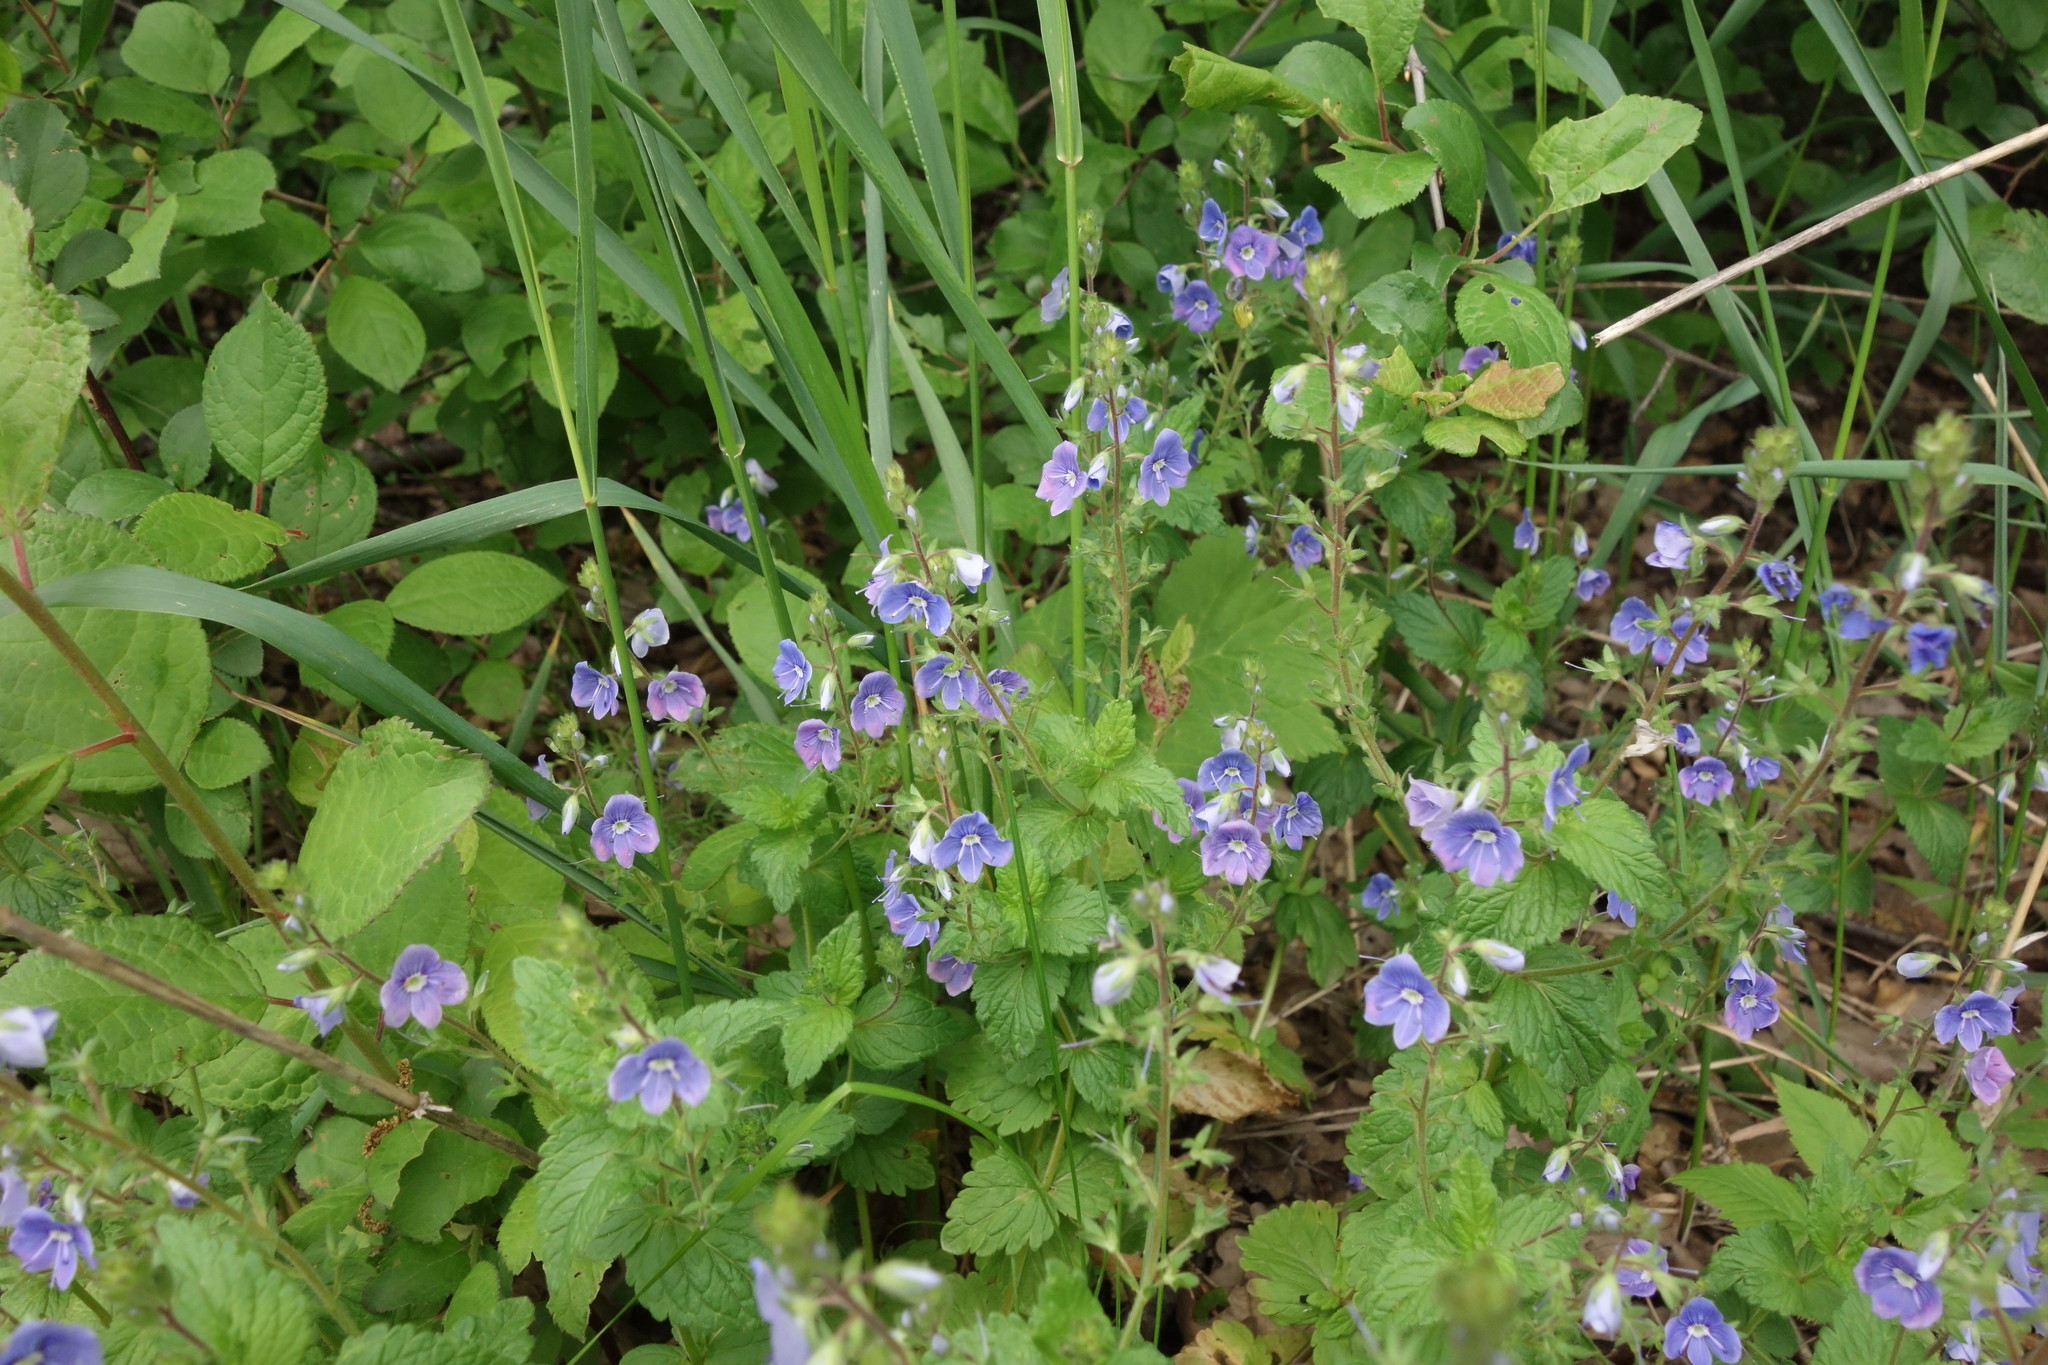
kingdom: Plantae
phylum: Tracheophyta
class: Magnoliopsida
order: Lamiales
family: Plantaginaceae
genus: Veronica
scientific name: Veronica chamaedrys
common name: Germander speedwell
